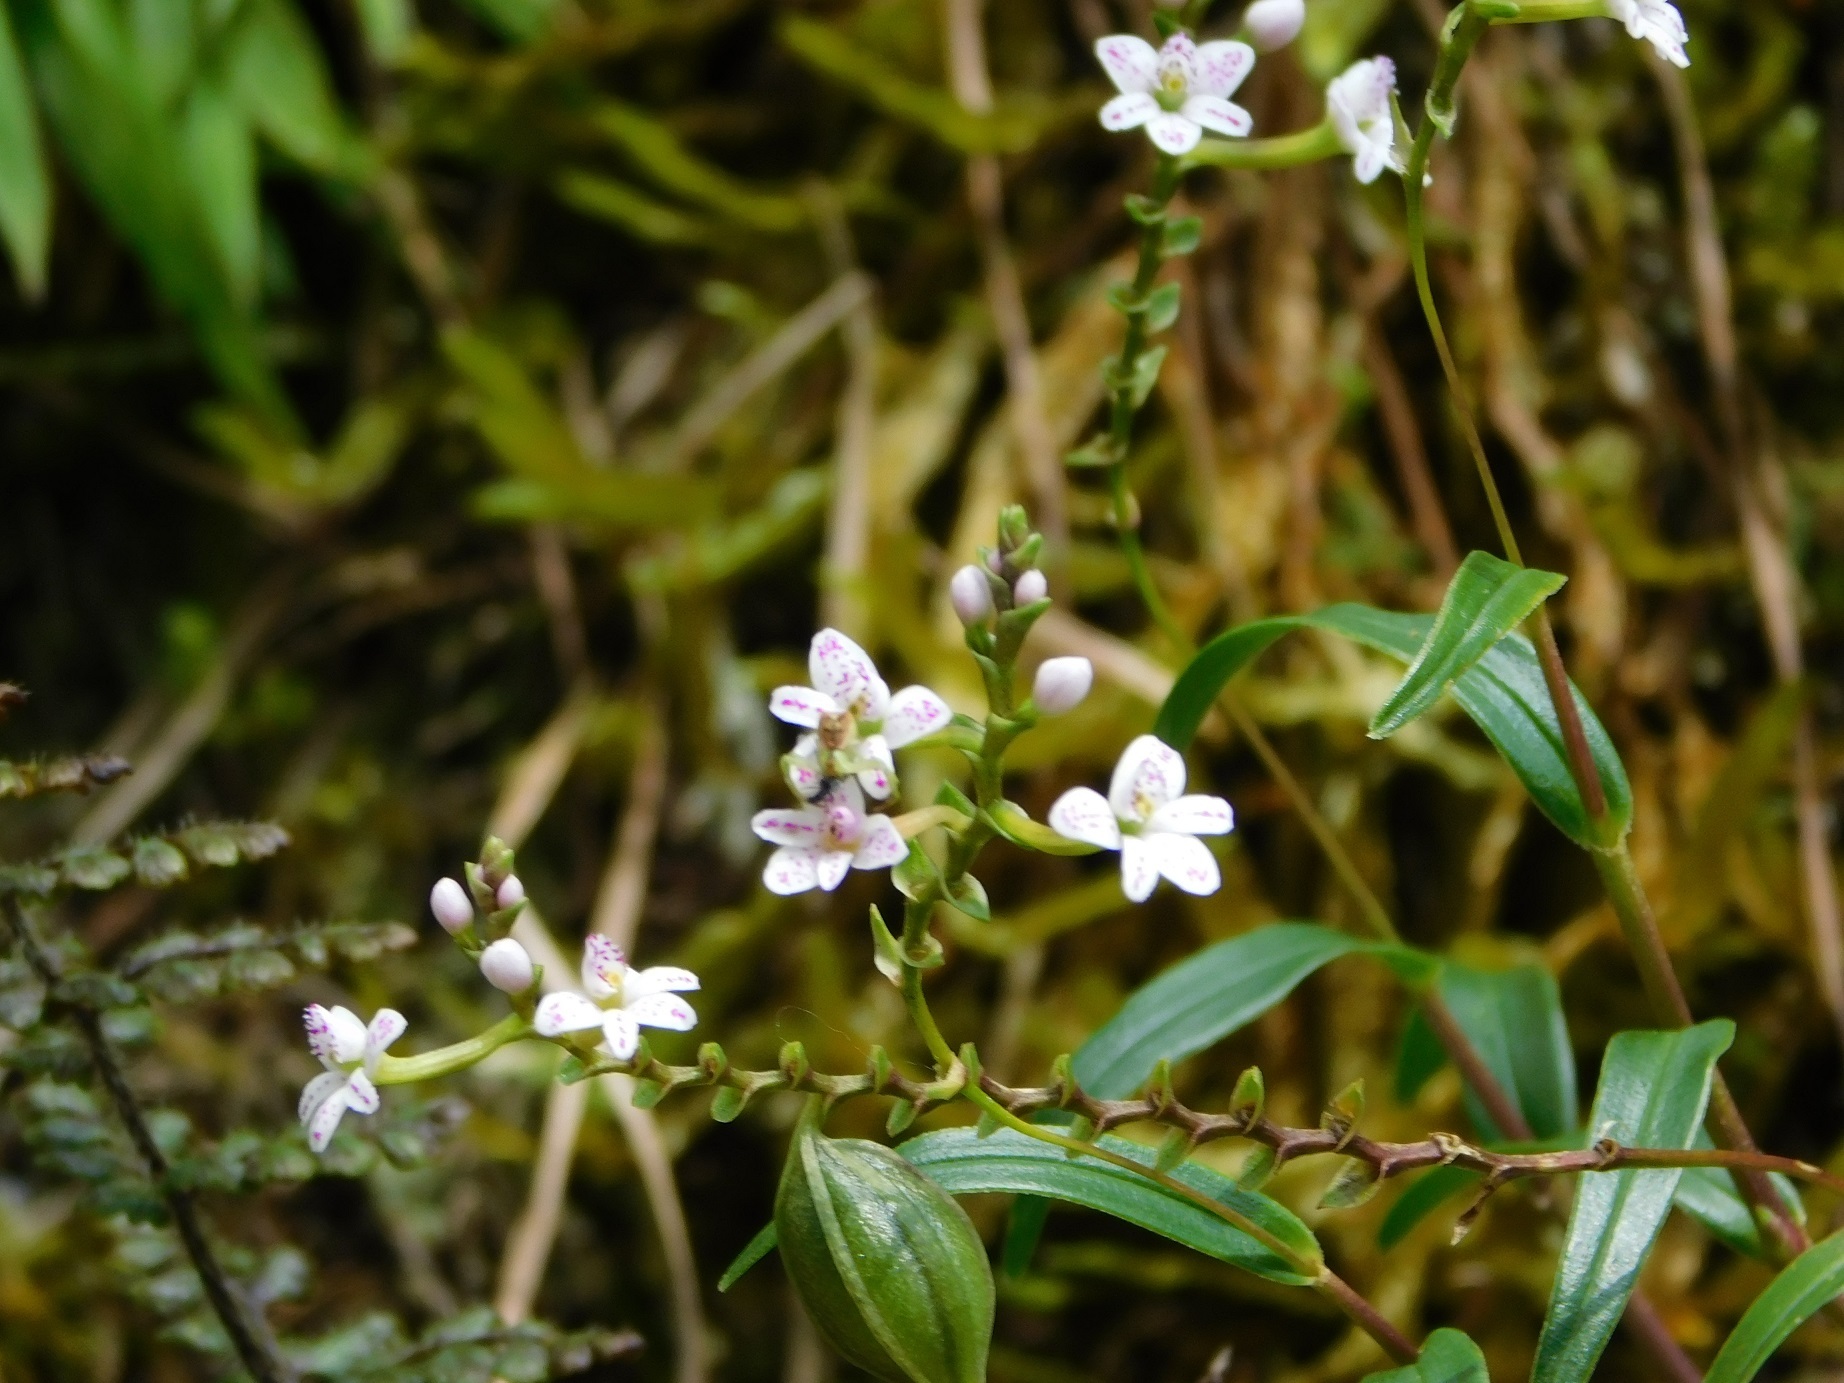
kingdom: Plantae
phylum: Tracheophyta
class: Liliopsida
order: Asparagales
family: Orchidaceae
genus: Epidendrum
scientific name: Epidendrum fimbriatum
